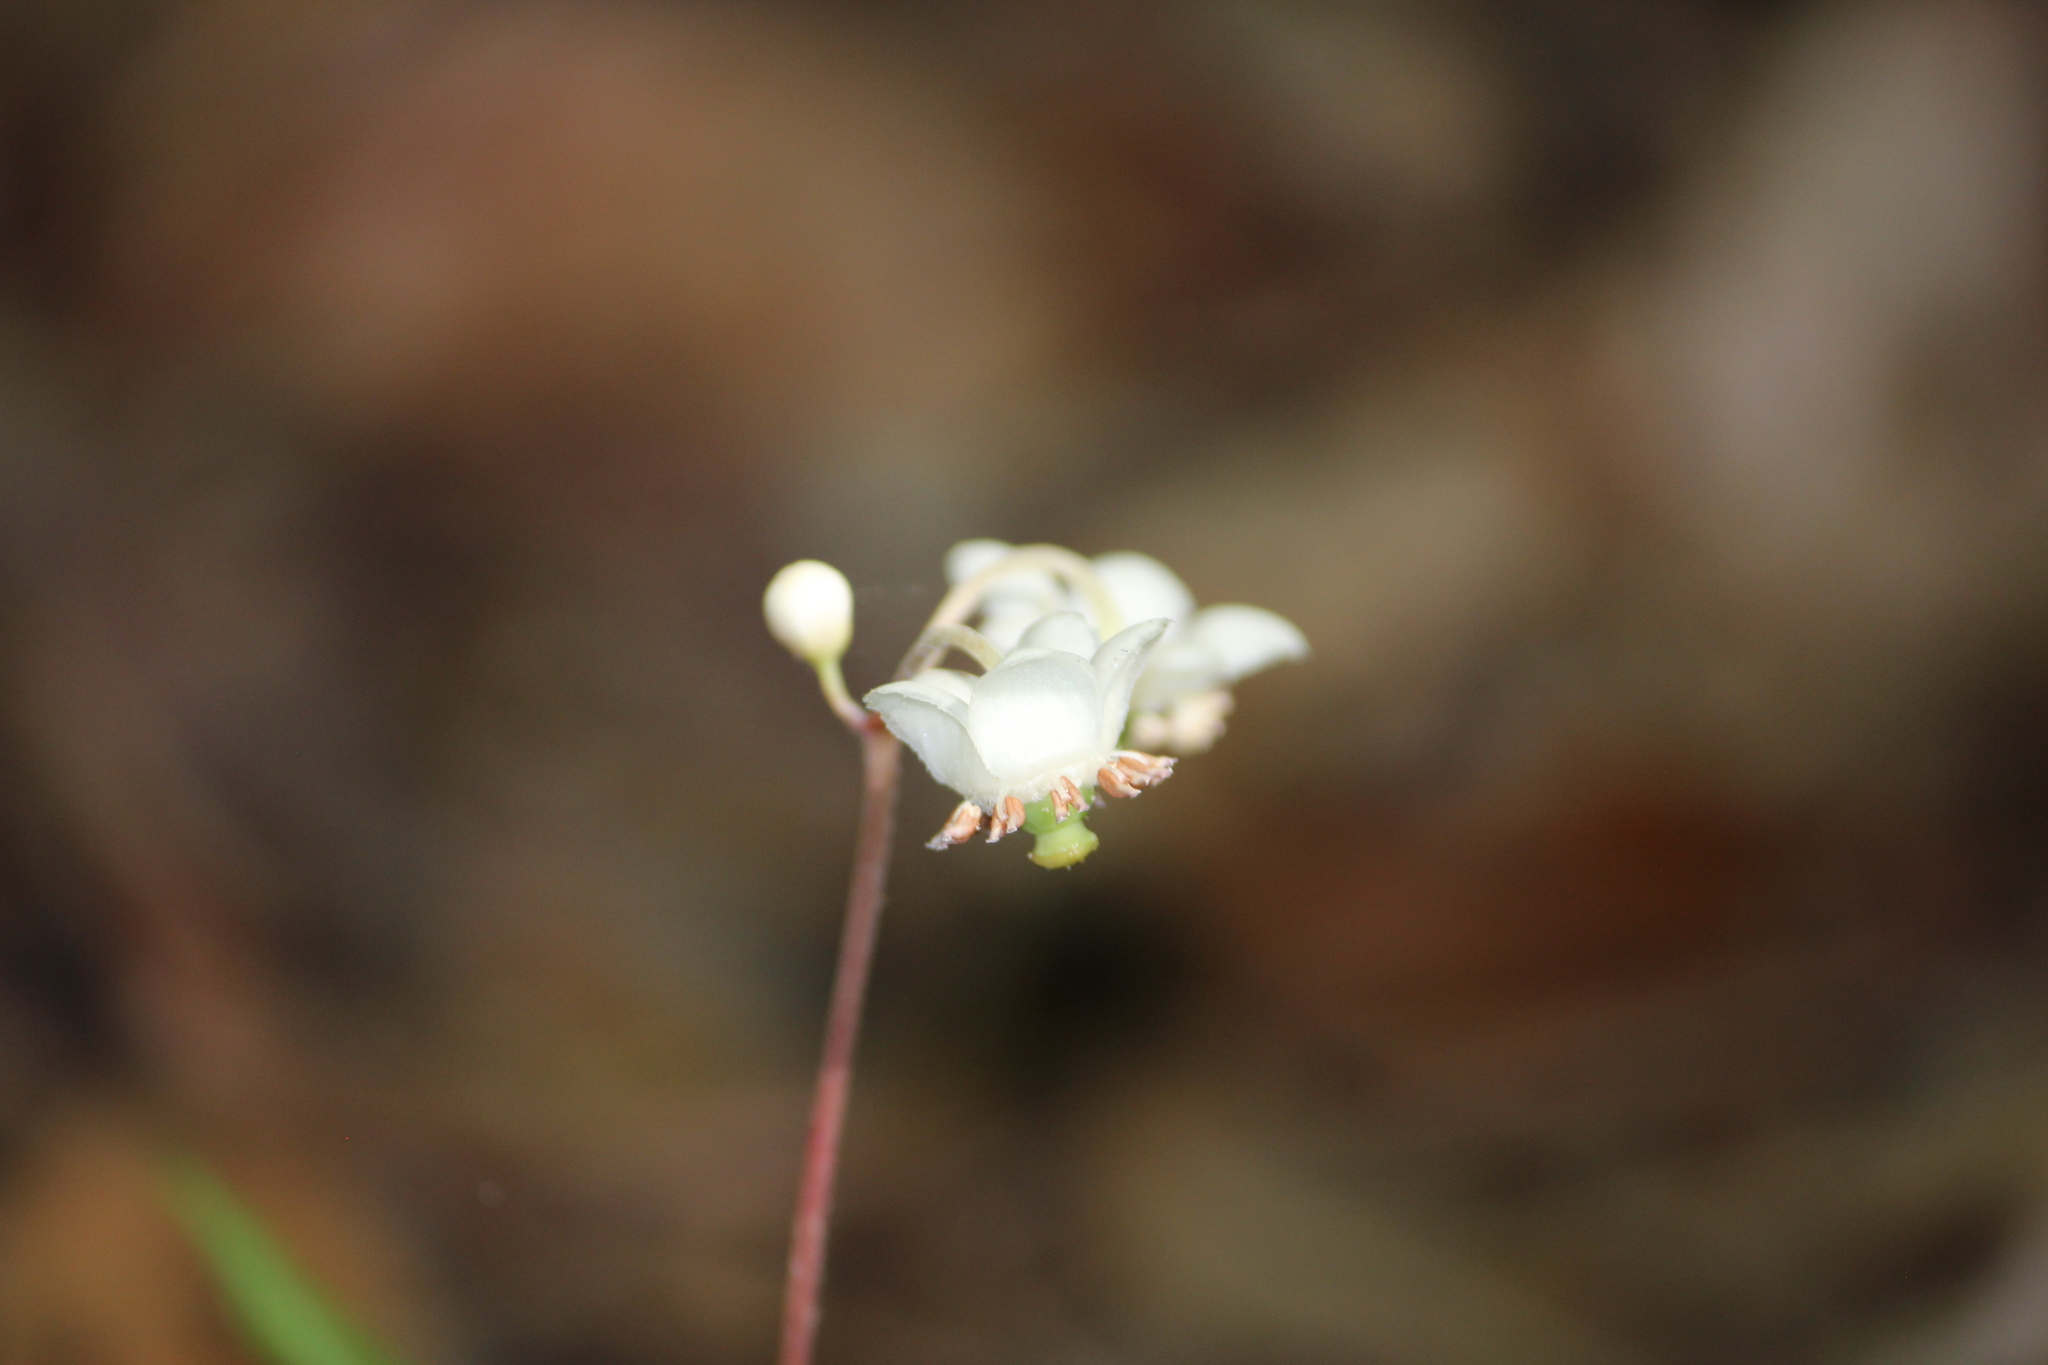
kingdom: Plantae
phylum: Tracheophyta
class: Magnoliopsida
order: Ericales
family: Ericaceae
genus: Chimaphila
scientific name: Chimaphila maculata
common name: Spotted pipsissewa
